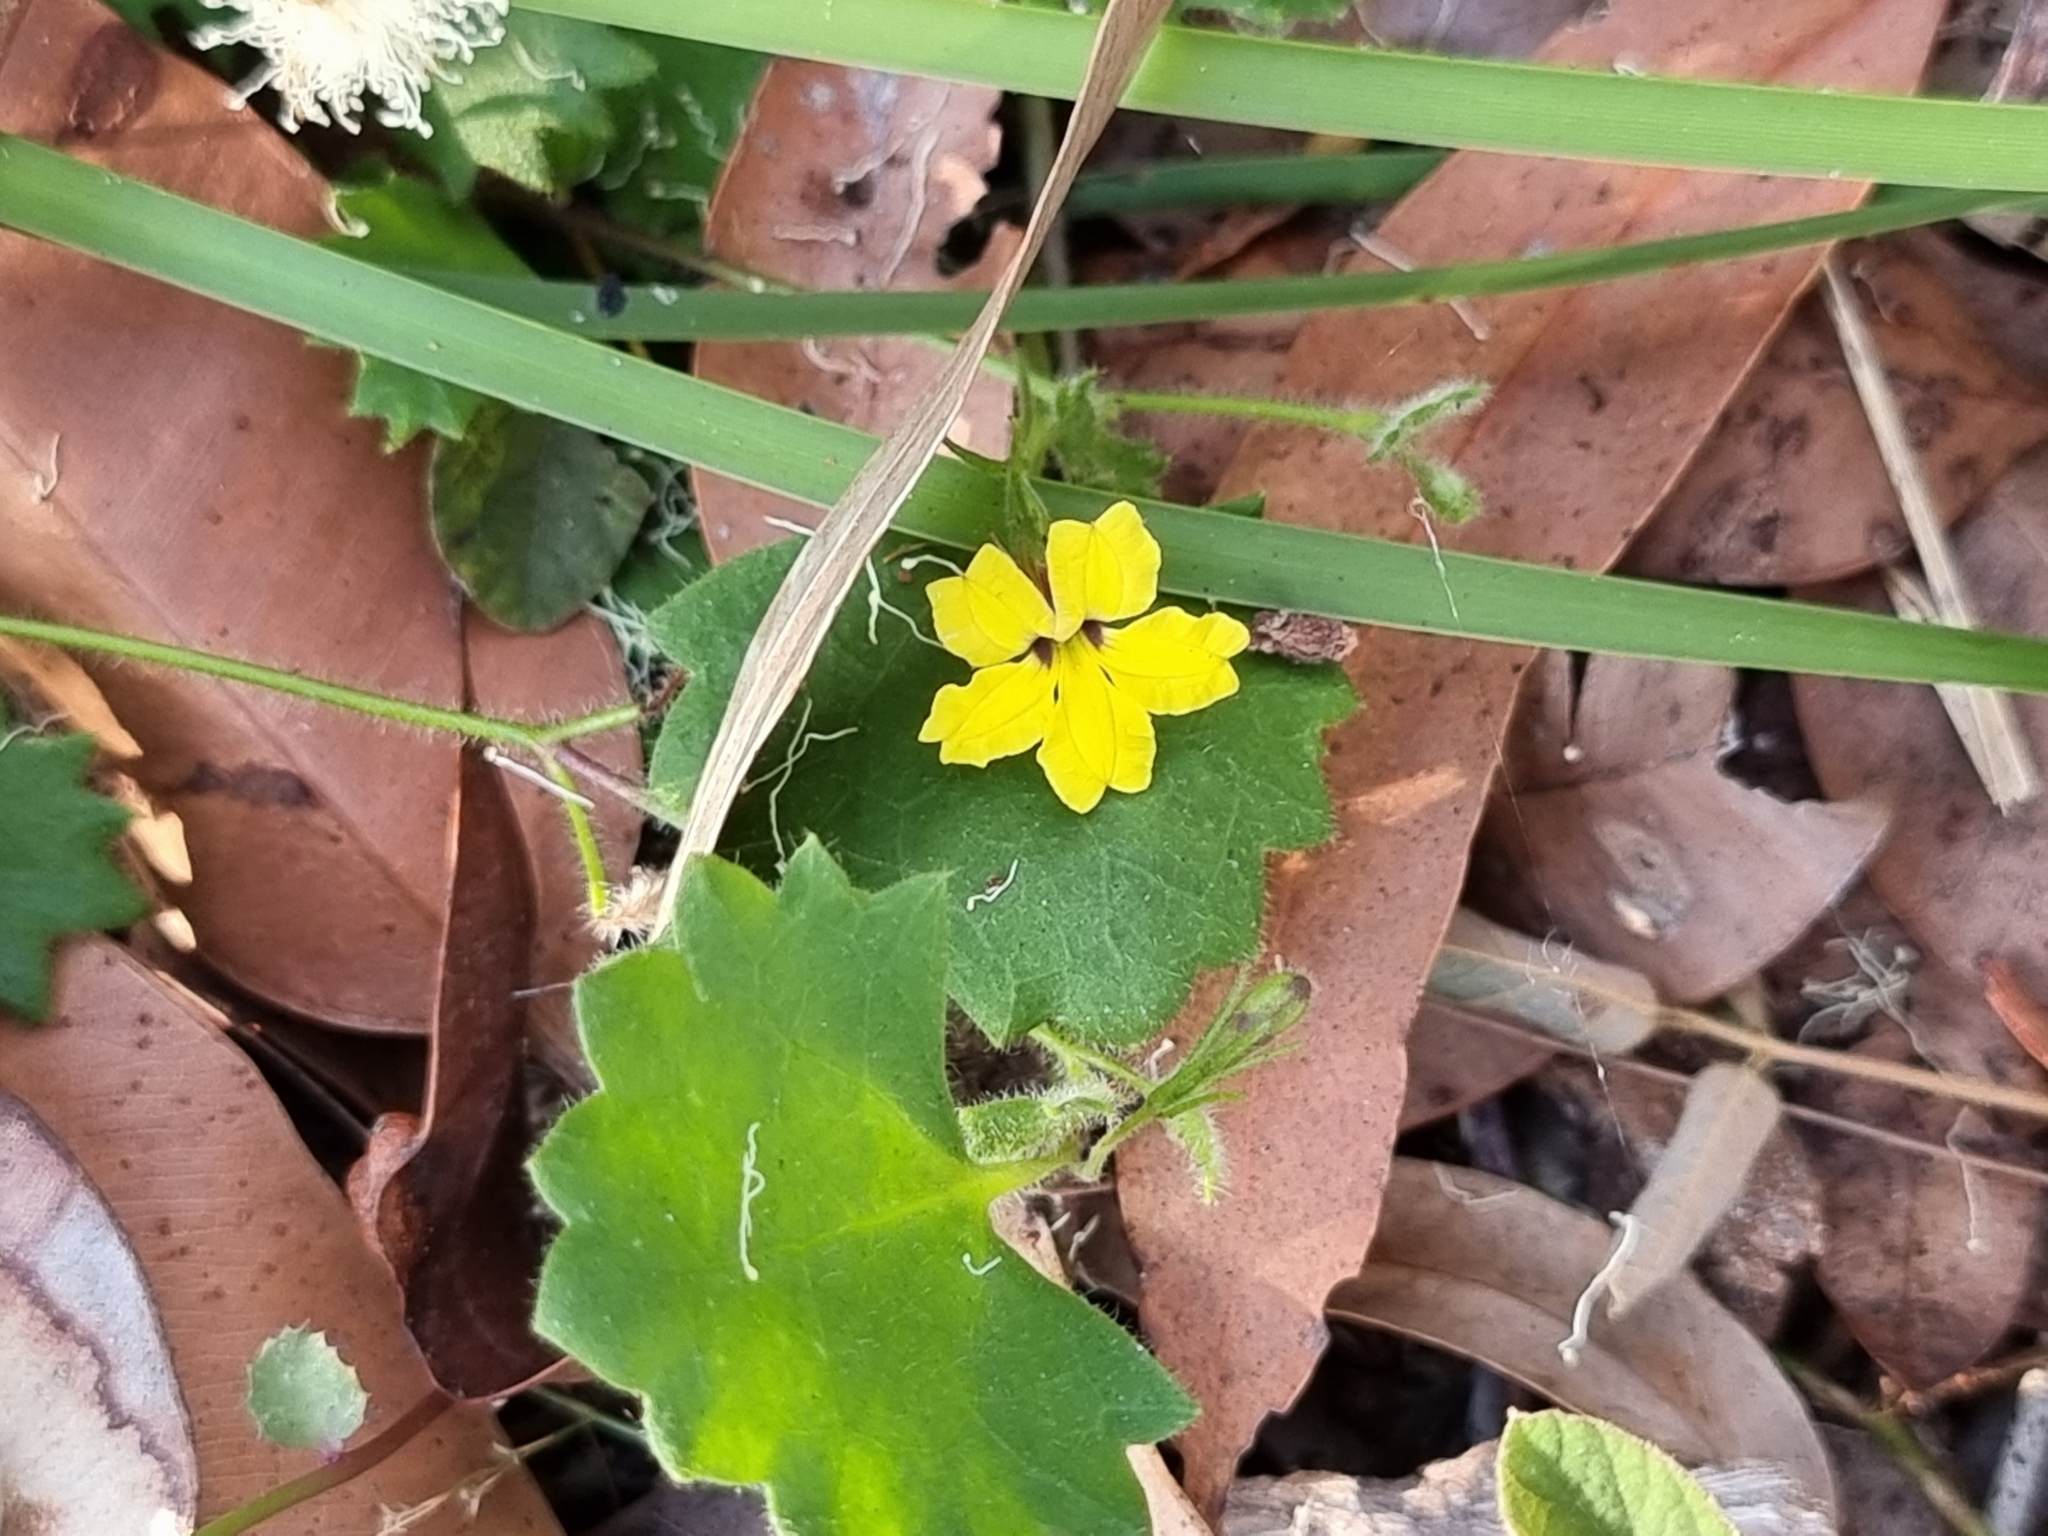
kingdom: Plantae
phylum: Tracheophyta
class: Magnoliopsida
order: Asterales
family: Goodeniaceae
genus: Goodenia
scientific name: Goodenia hederacea
